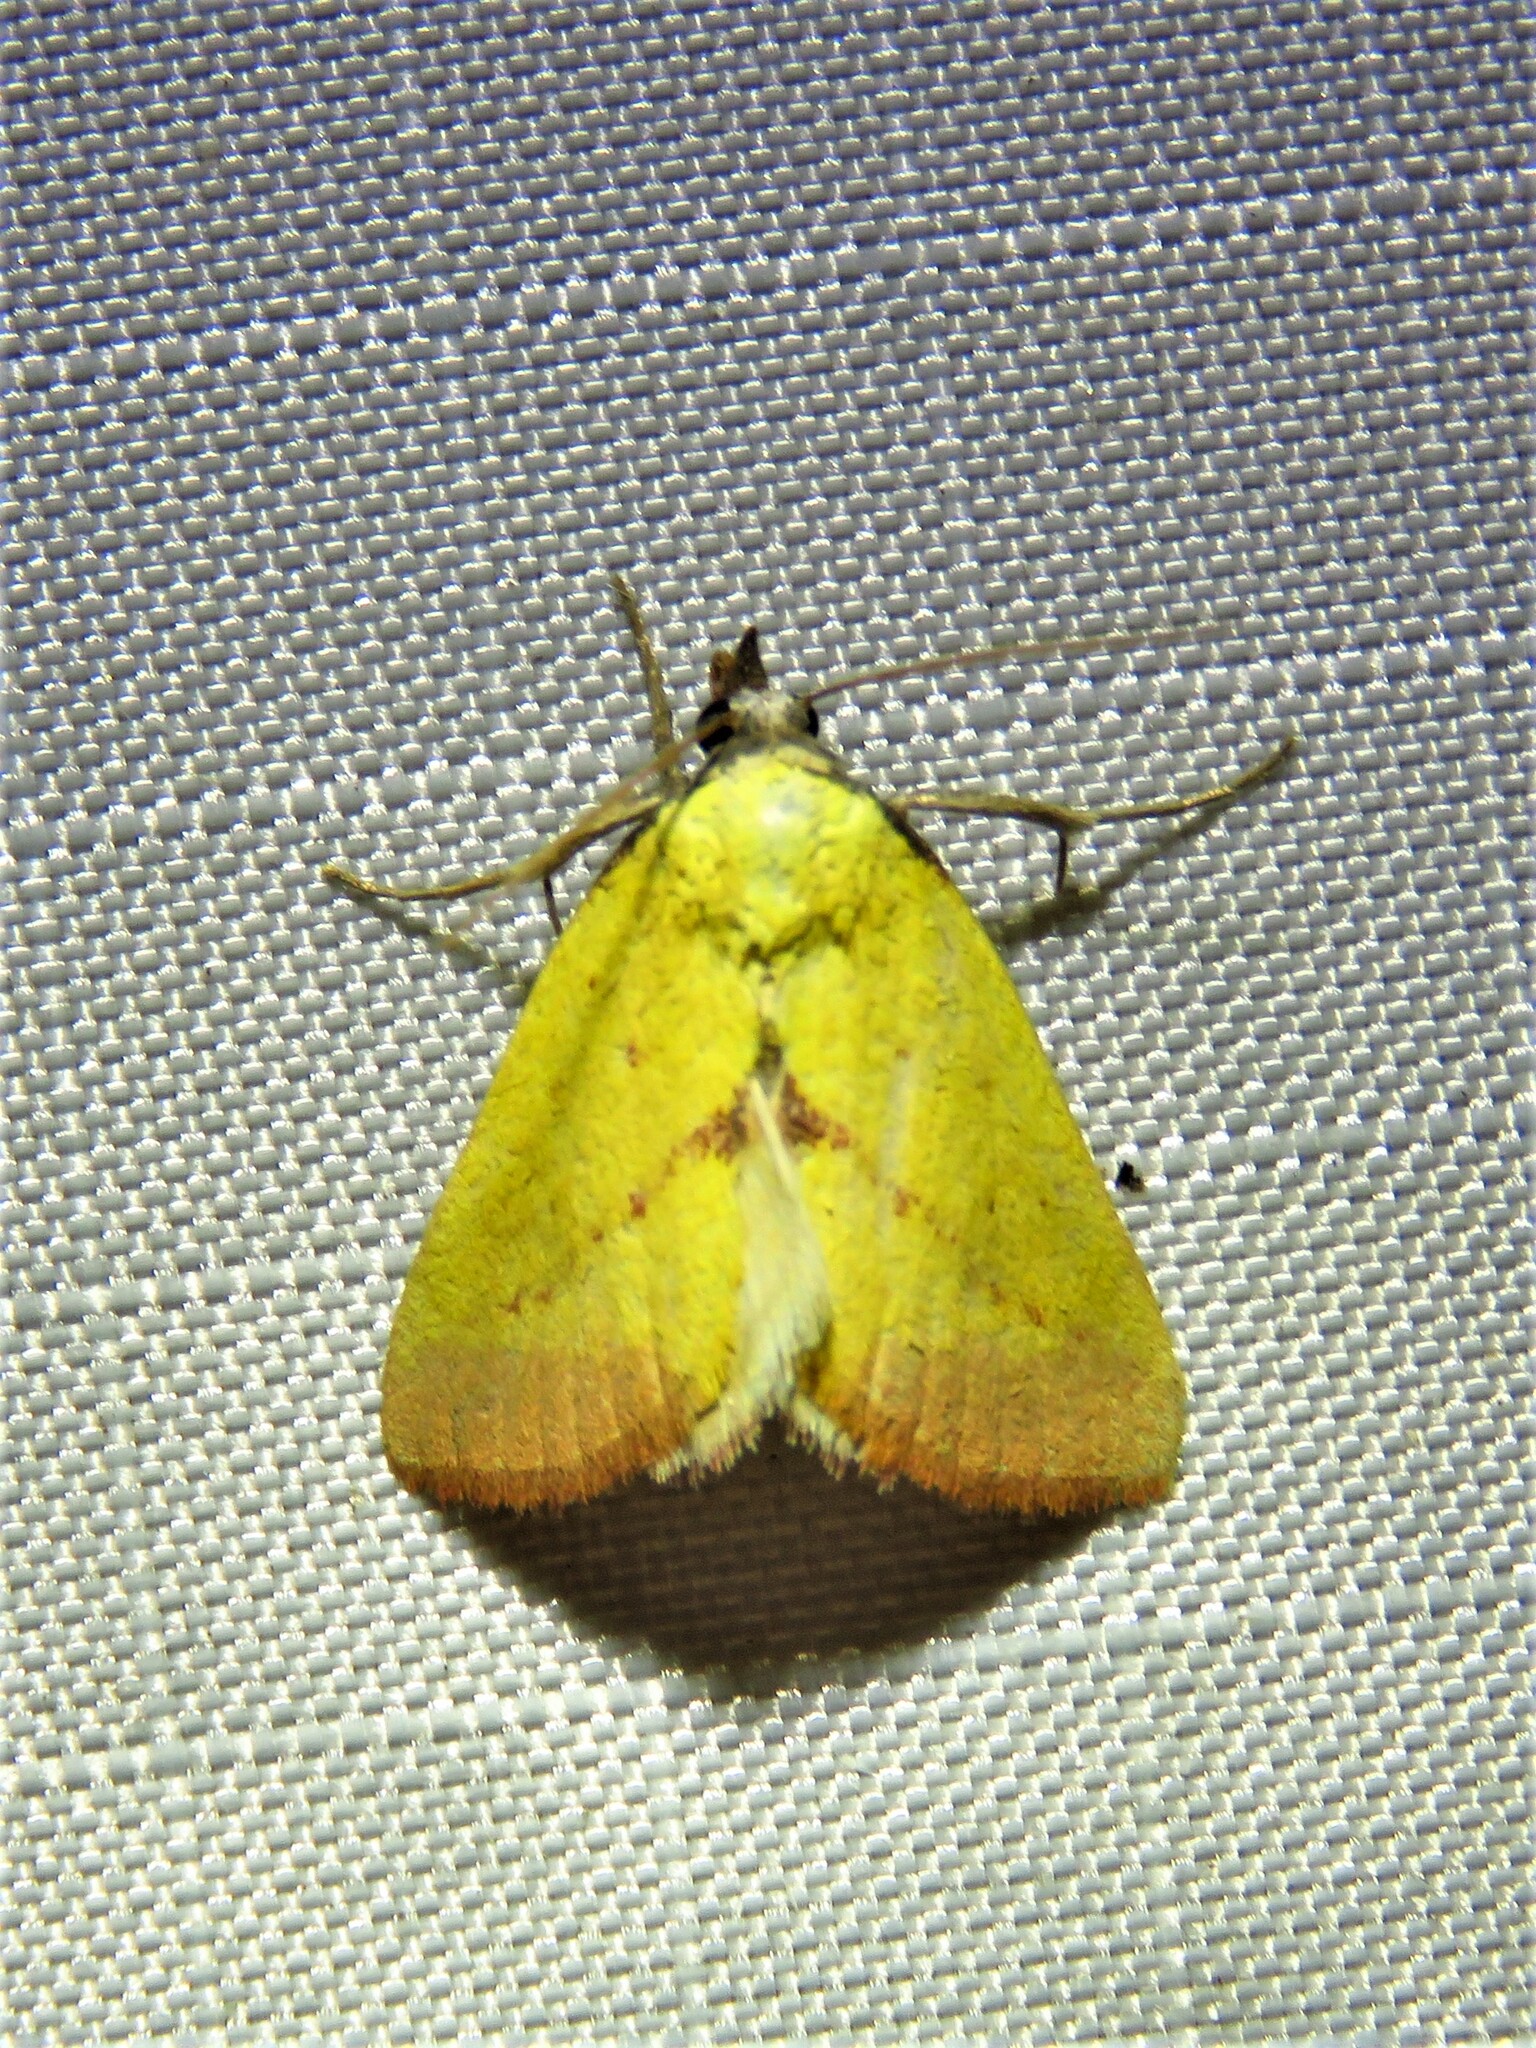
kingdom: Animalia
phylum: Arthropoda
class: Insecta
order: Lepidoptera
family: Erebidae
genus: Phytometra
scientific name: Phytometra orgiae
